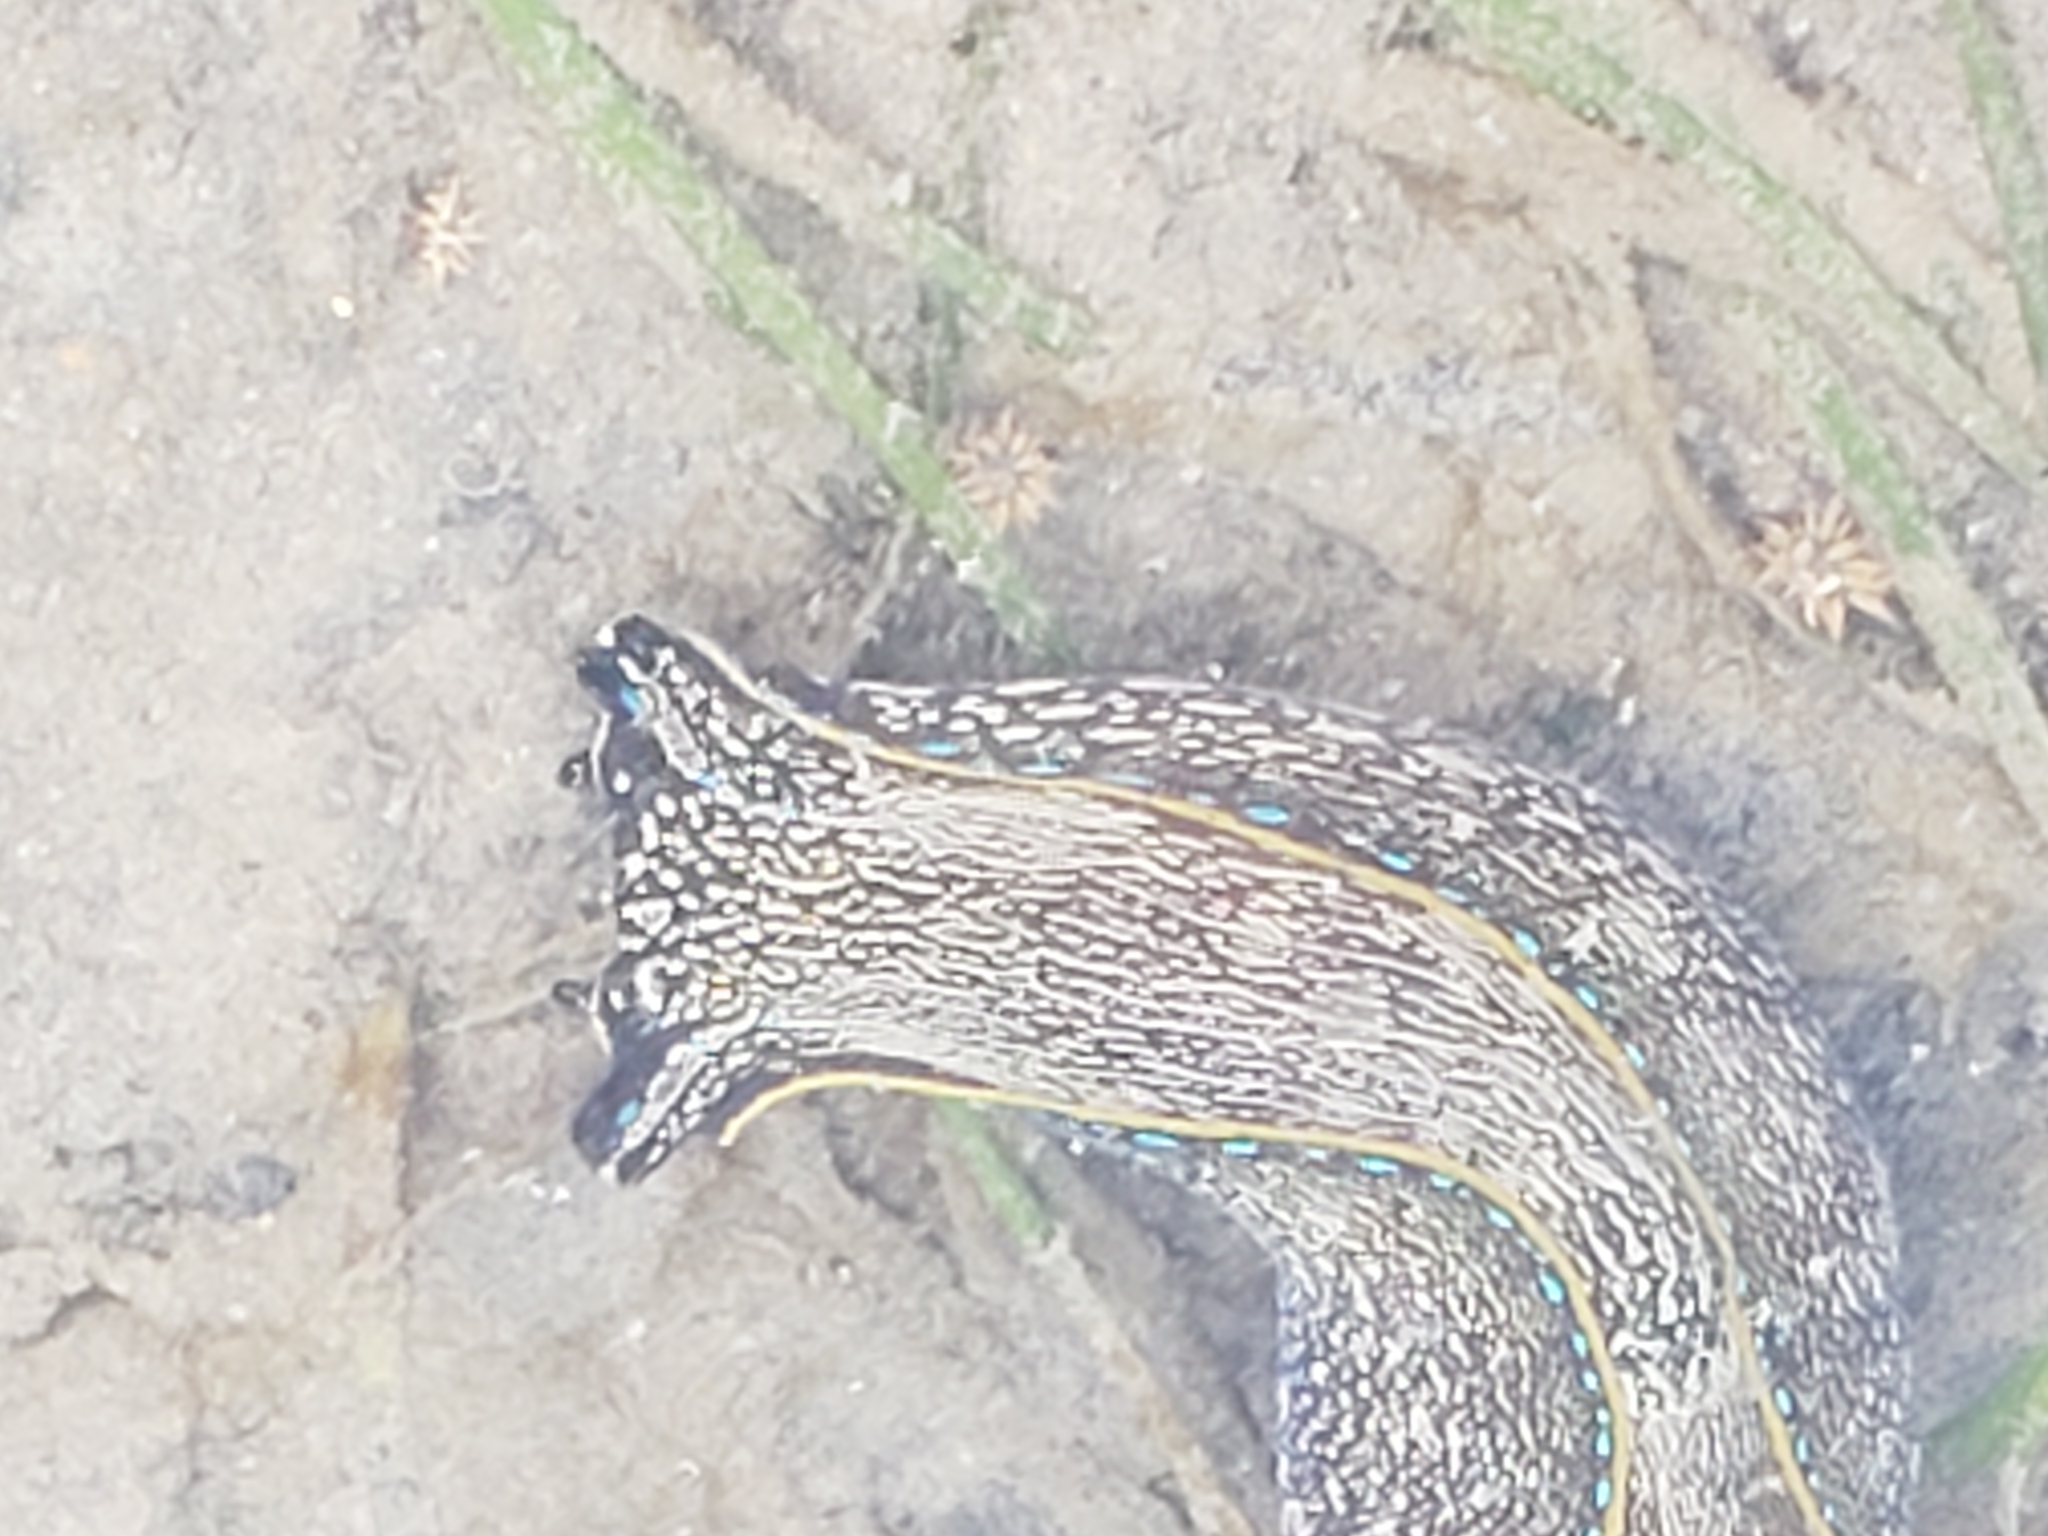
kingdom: Animalia
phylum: Mollusca
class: Gastropoda
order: Cephalaspidea
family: Aglajidae
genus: Navanax
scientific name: Navanax inermis
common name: California aglaja
